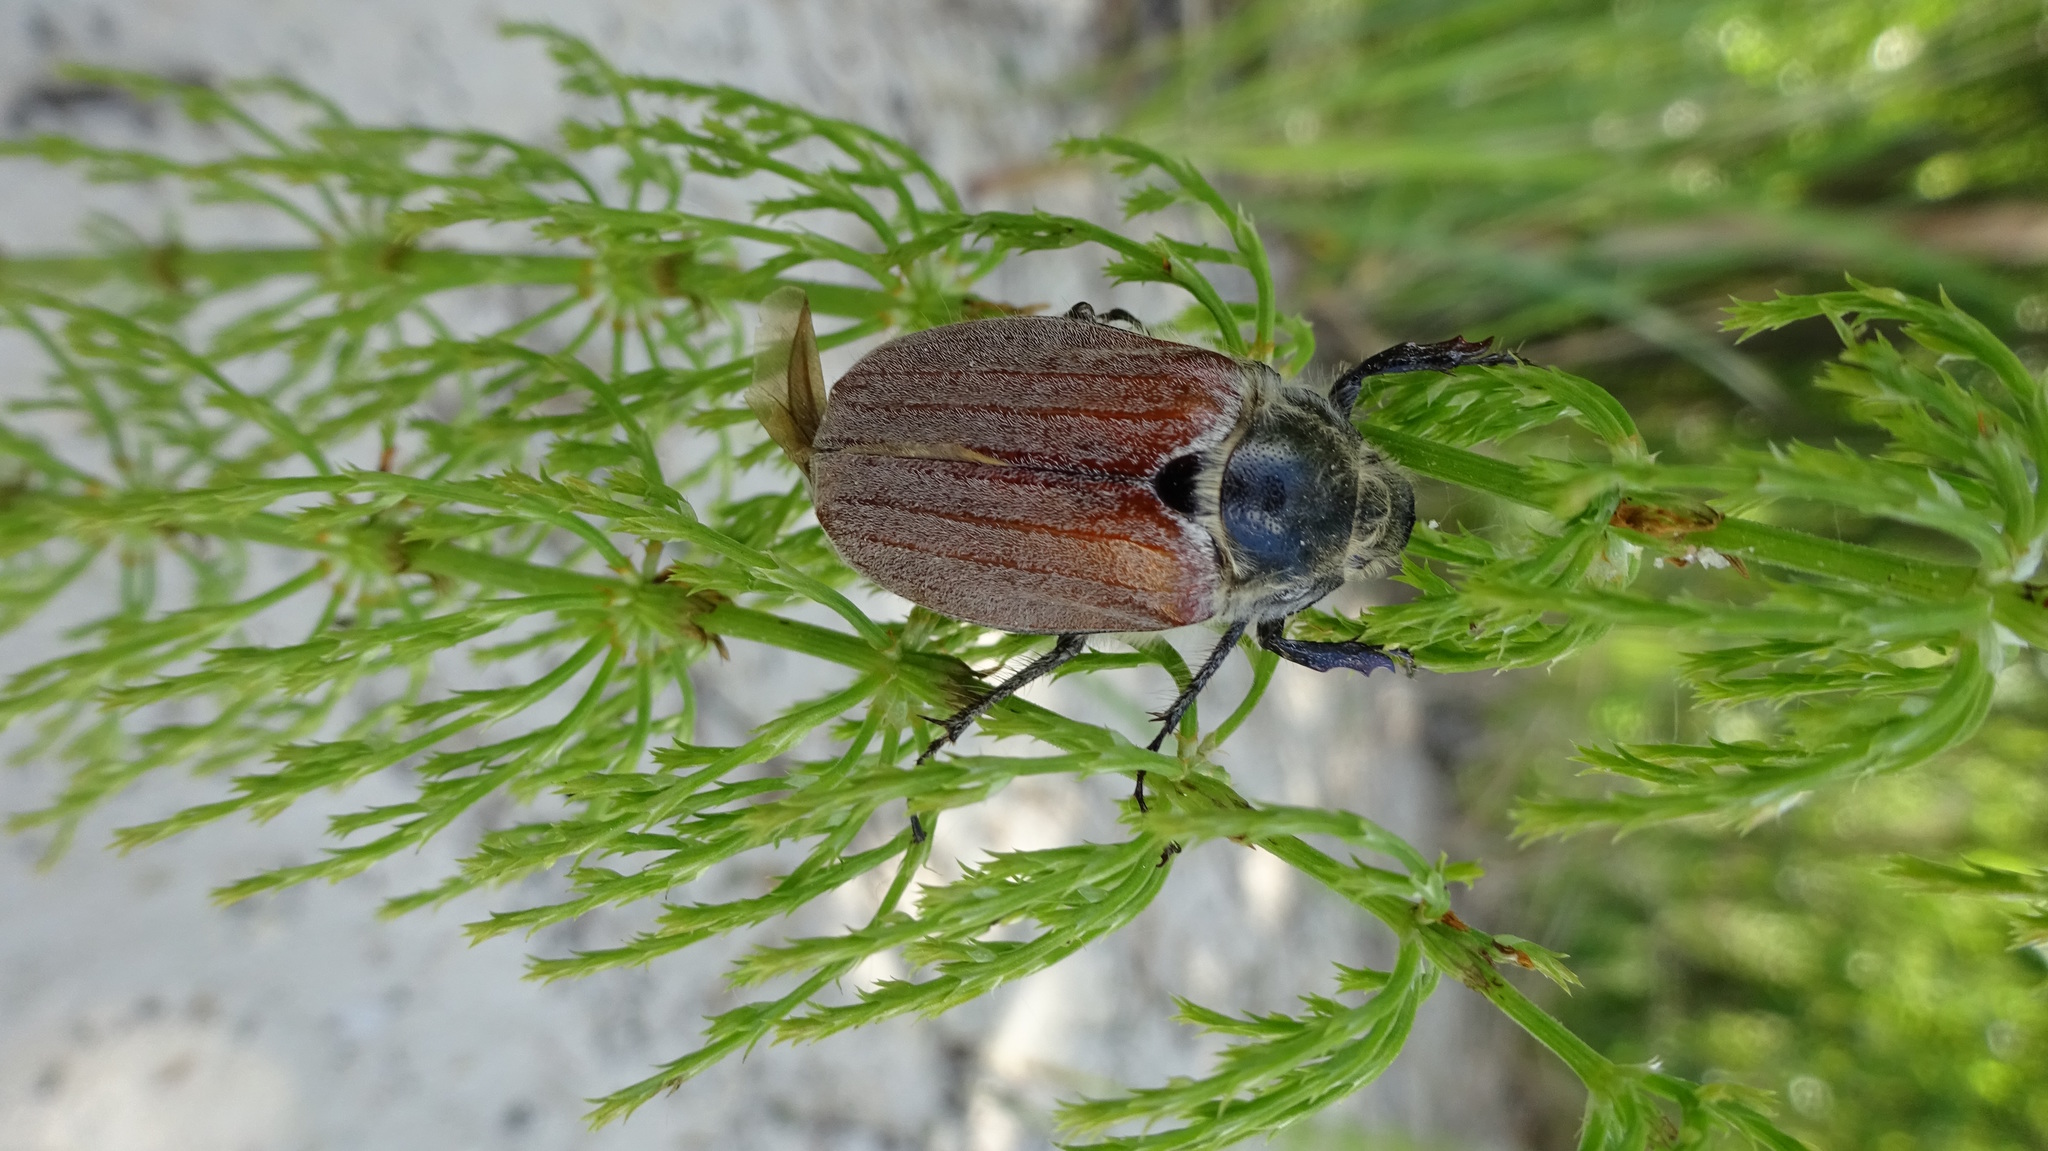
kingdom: Animalia
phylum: Arthropoda
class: Insecta
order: Coleoptera
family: Scarabaeidae
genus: Melolontha
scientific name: Melolontha hippocastani
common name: Chestnut cockchafer
